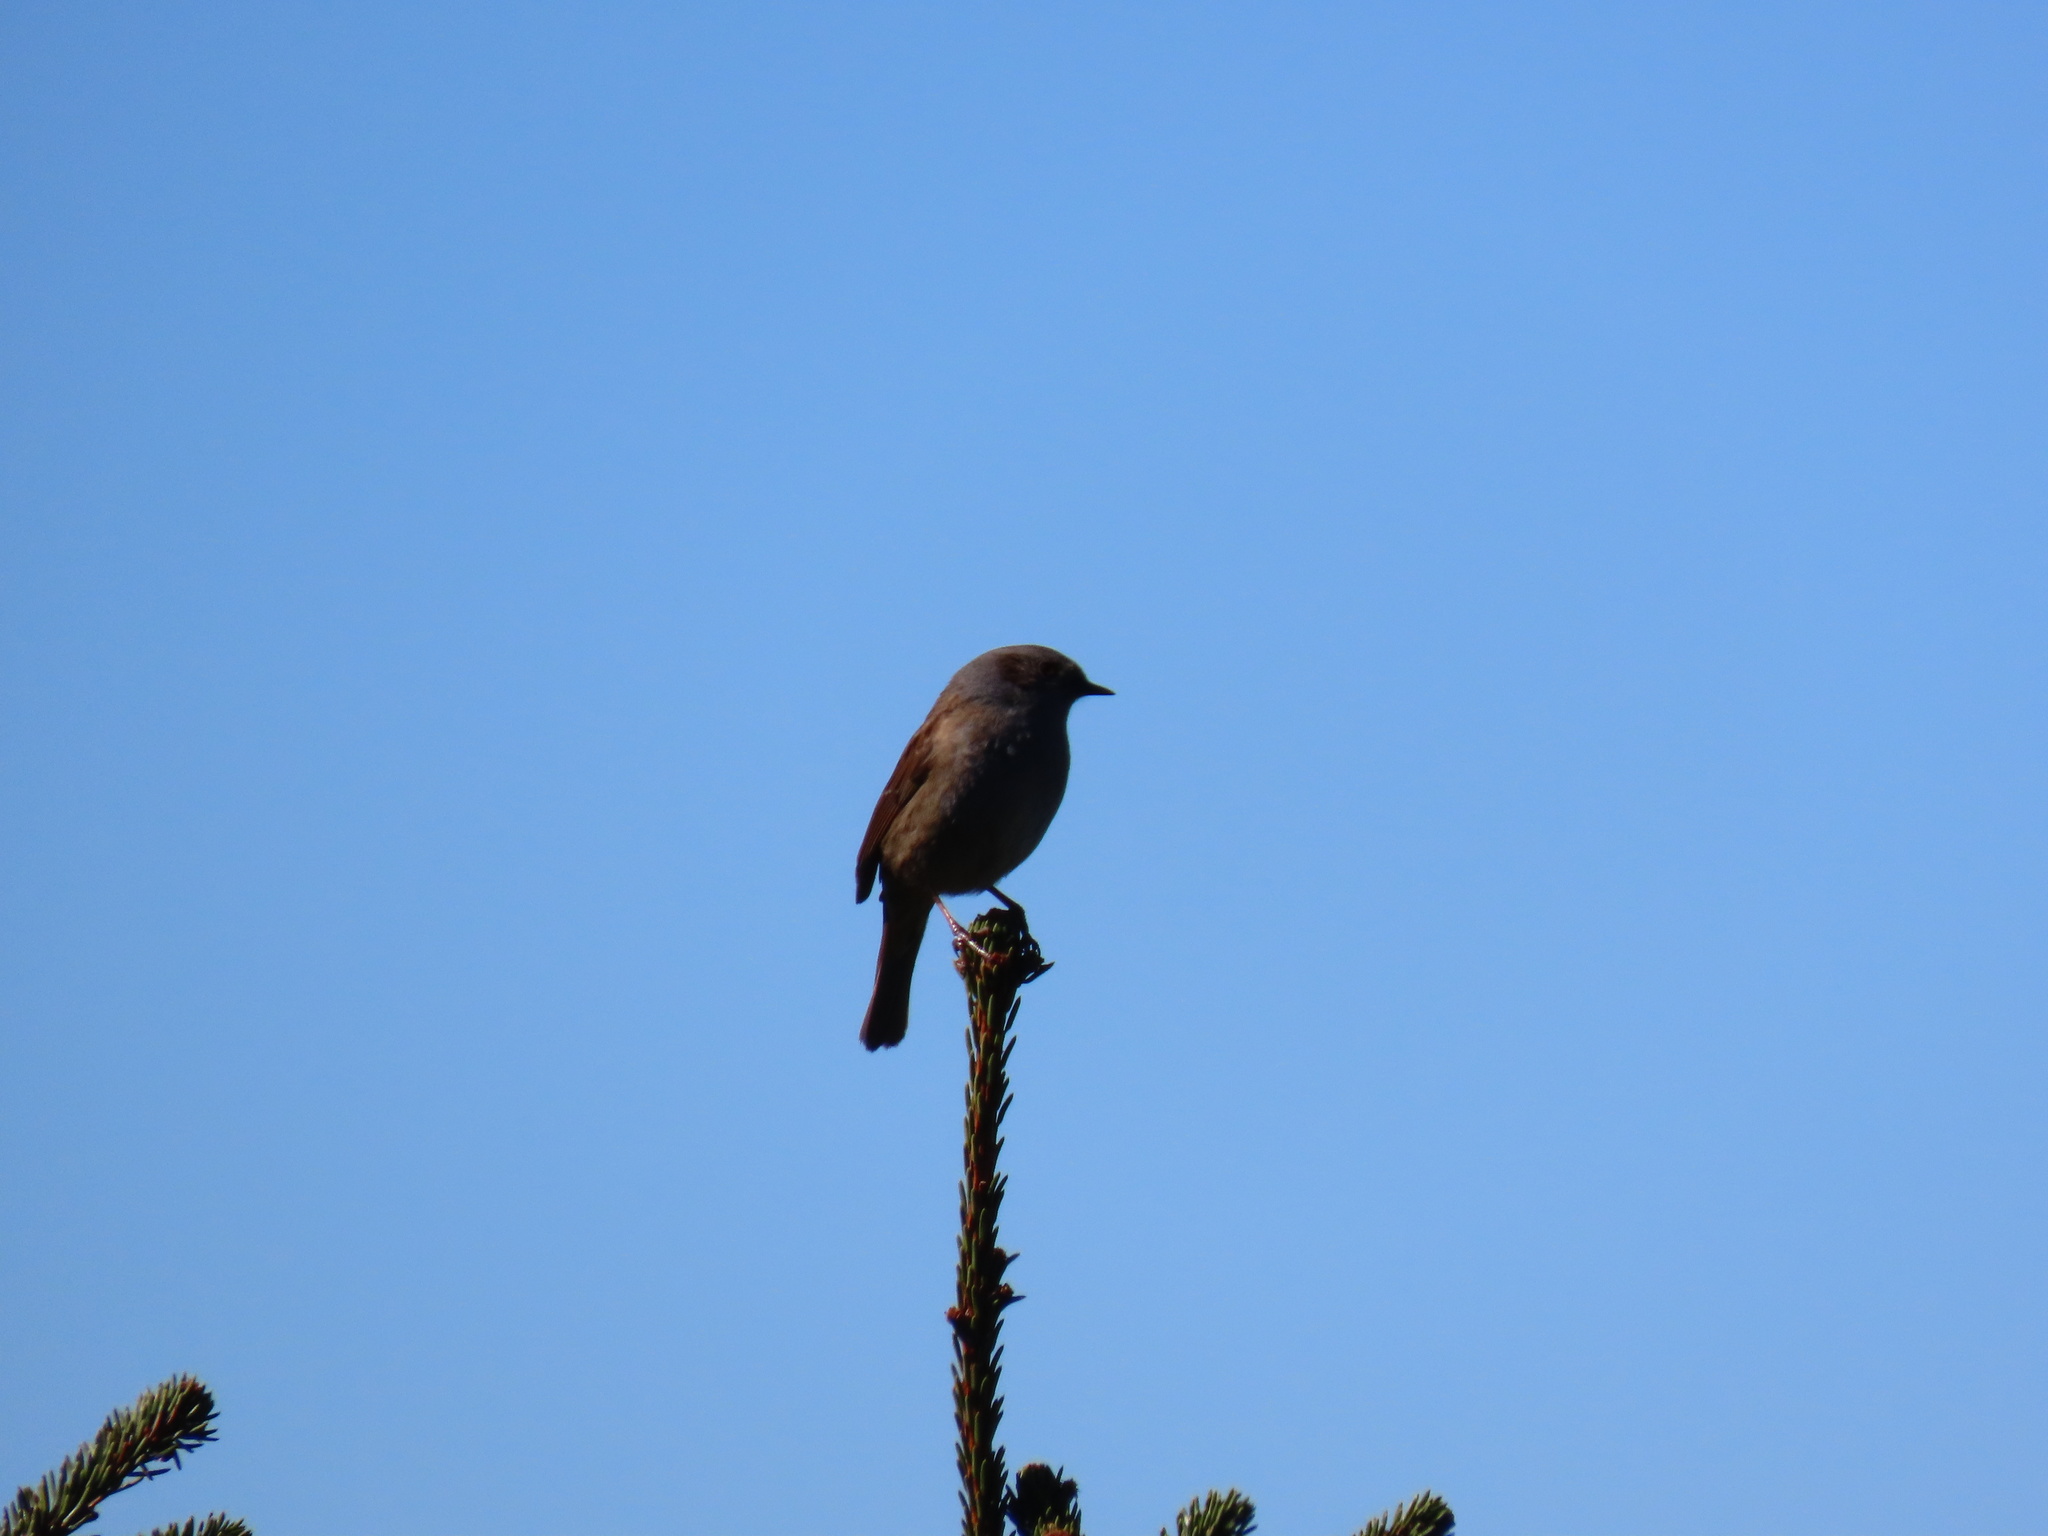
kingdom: Animalia
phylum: Chordata
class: Aves
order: Passeriformes
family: Prunellidae
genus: Prunella
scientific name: Prunella modularis
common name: Dunnock
